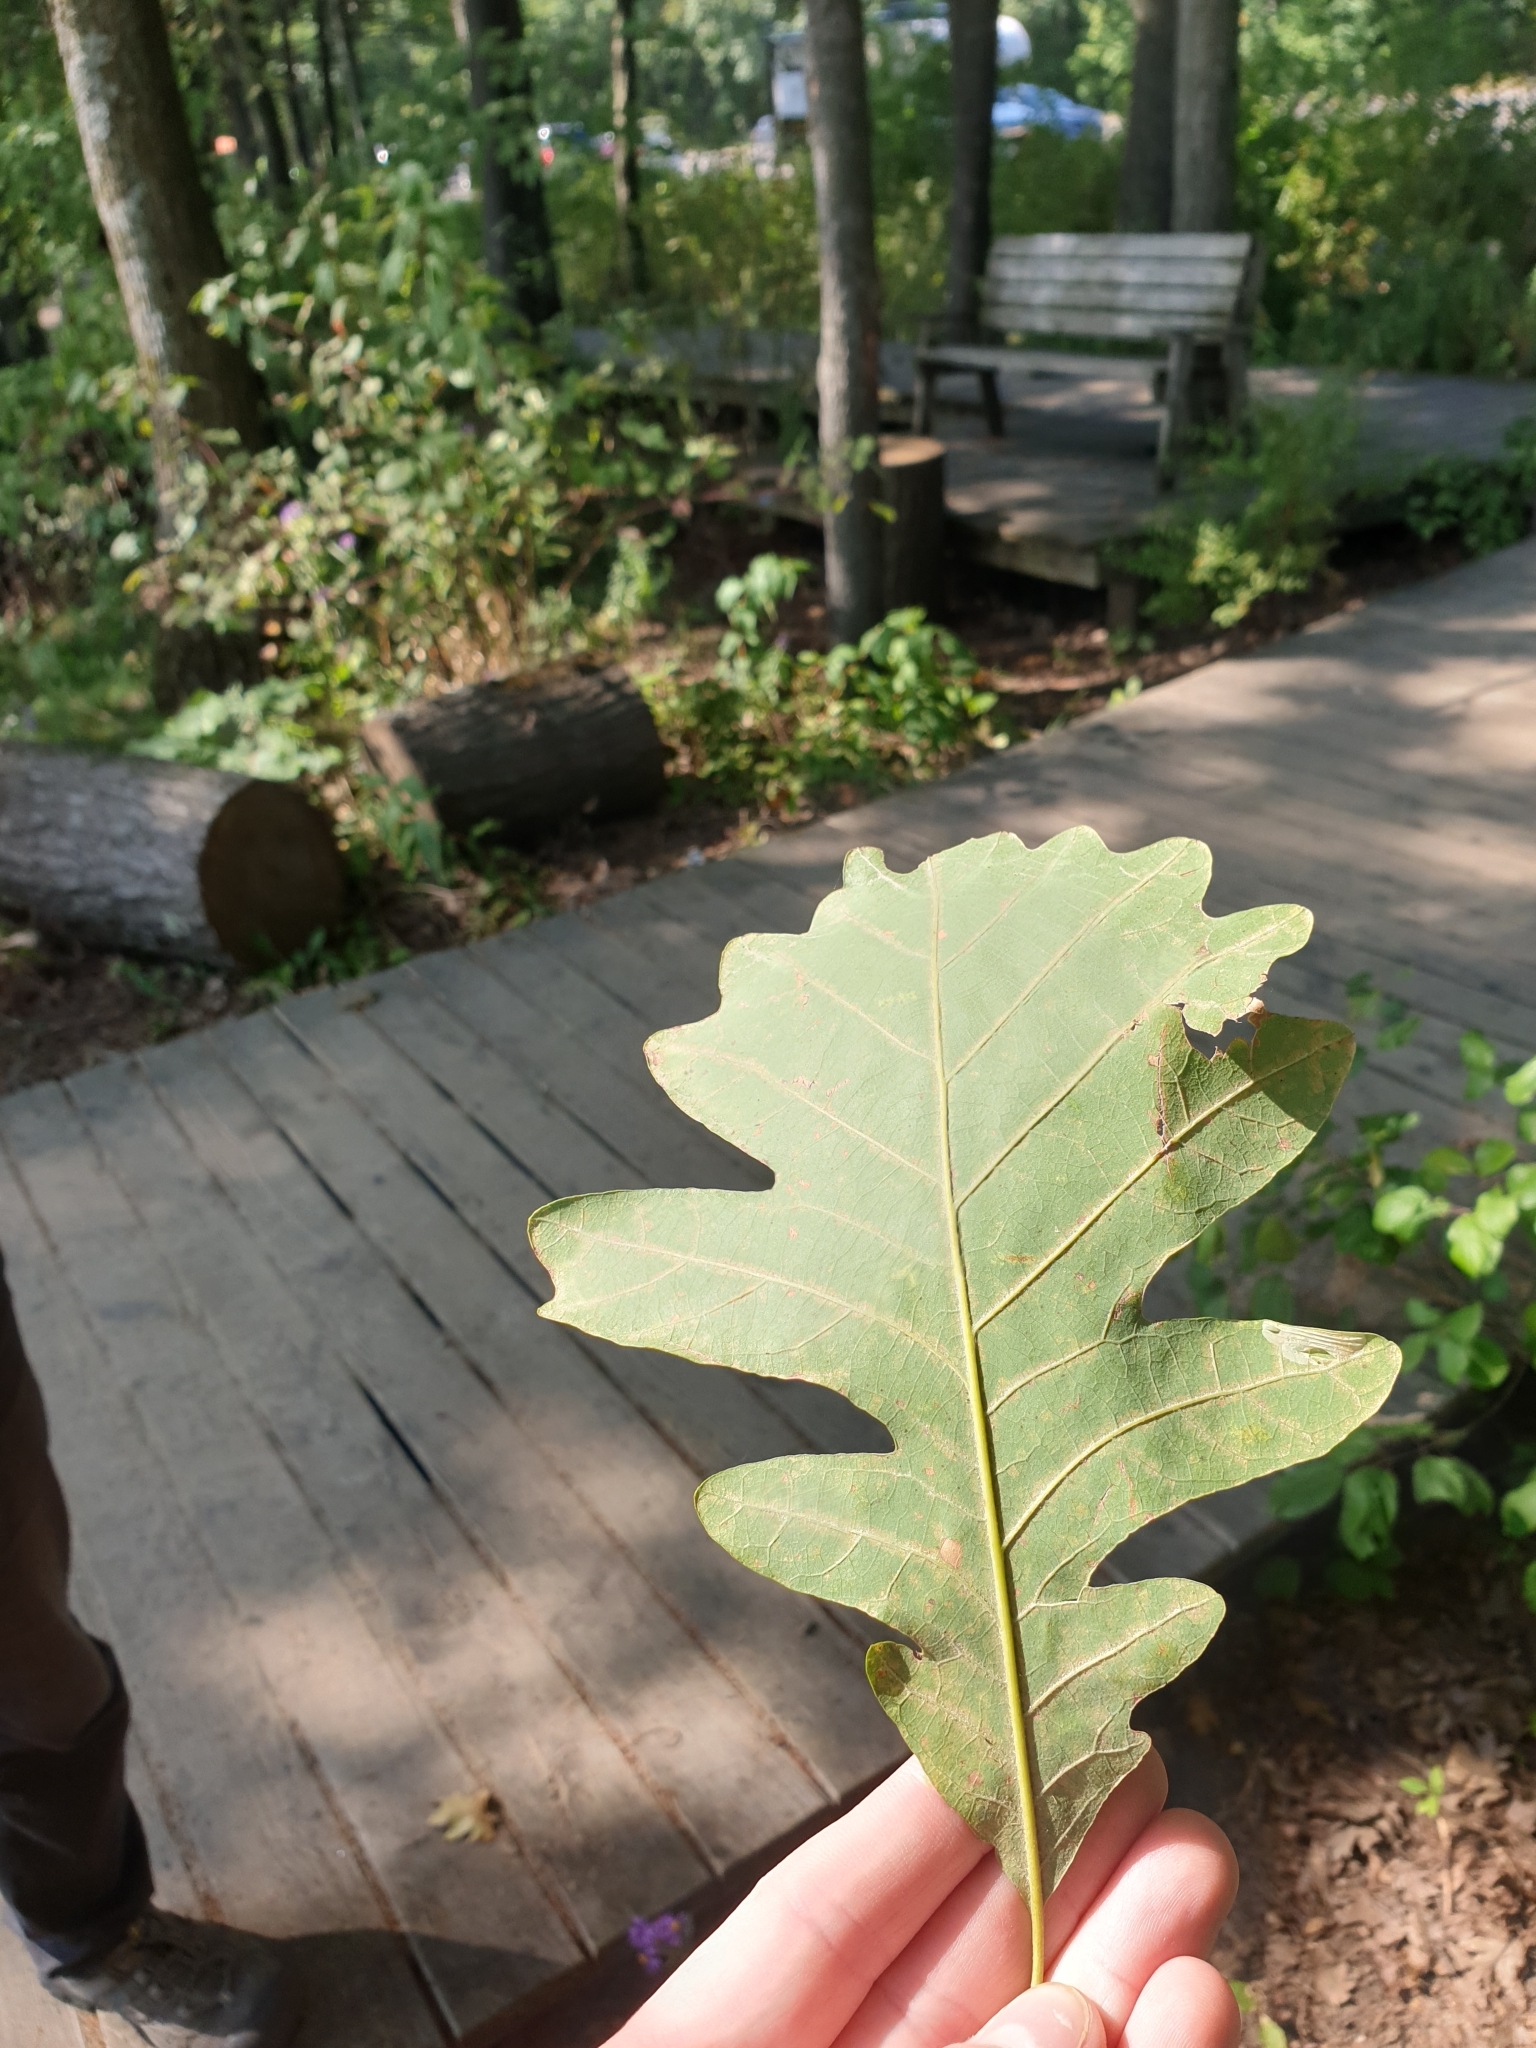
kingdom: Plantae
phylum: Tracheophyta
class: Magnoliopsida
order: Fagales
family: Fagaceae
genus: Quercus
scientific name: Quercus bebbiana
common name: Bebb's oak
